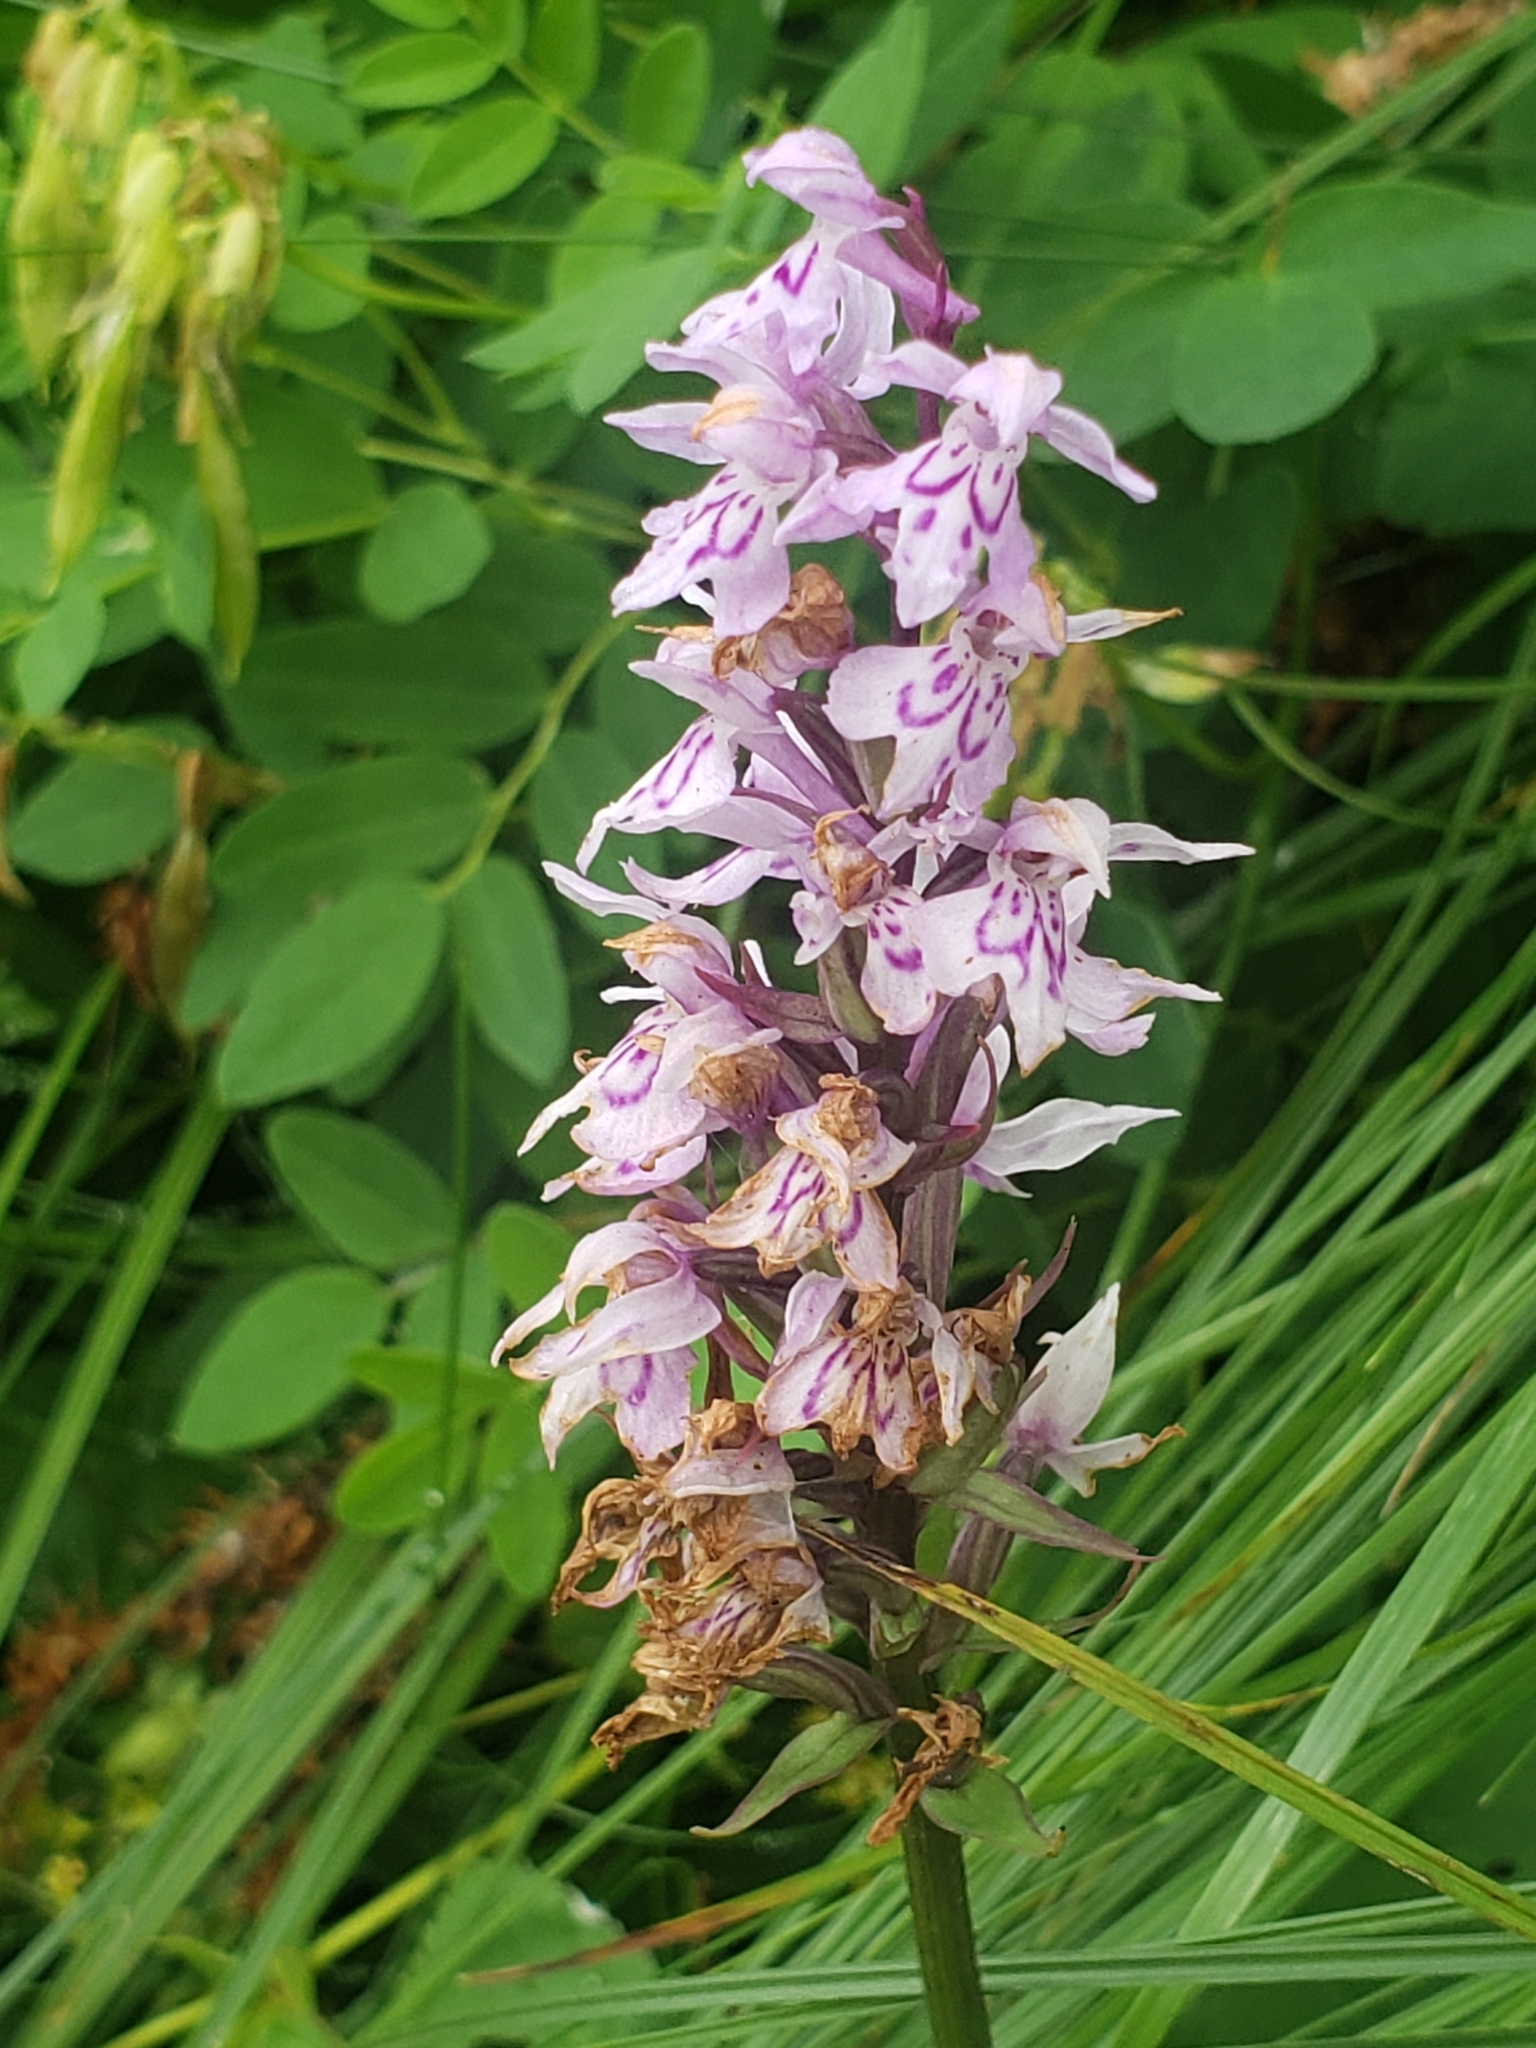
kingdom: Plantae
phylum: Tracheophyta
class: Liliopsida
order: Asparagales
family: Orchidaceae
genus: Dactylorhiza
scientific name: Dactylorhiza maculata
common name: Heath spotted-orchid
